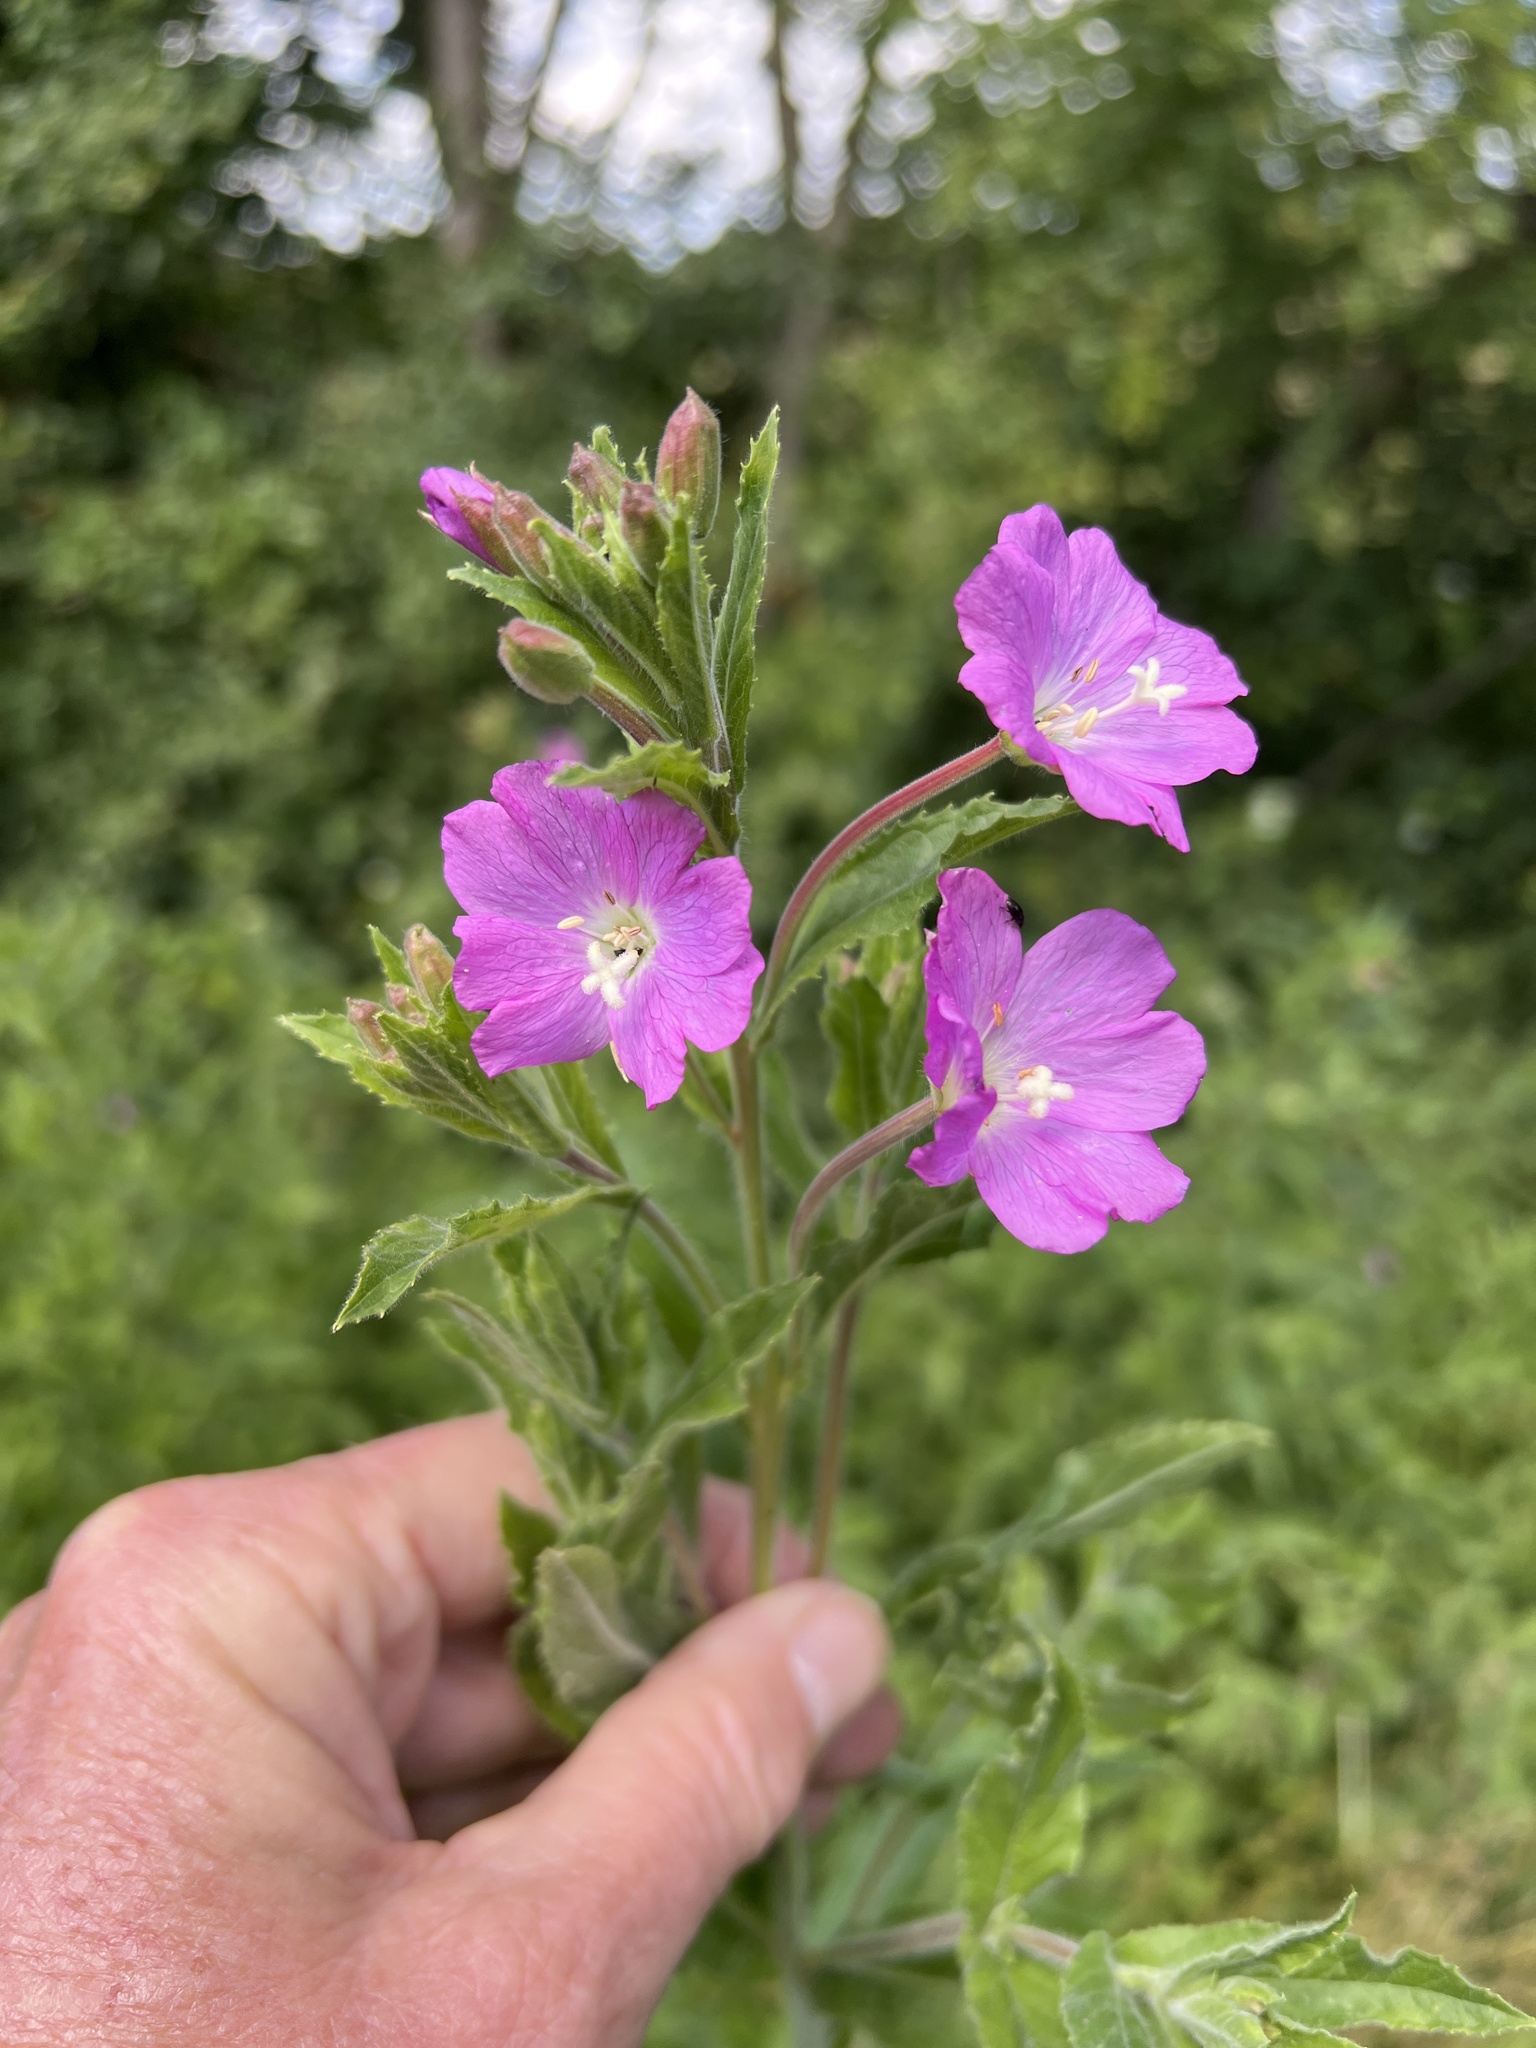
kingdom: Plantae
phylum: Tracheophyta
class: Magnoliopsida
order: Myrtales
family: Onagraceae
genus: Epilobium
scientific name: Epilobium hirsutum
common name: Great willowherb
